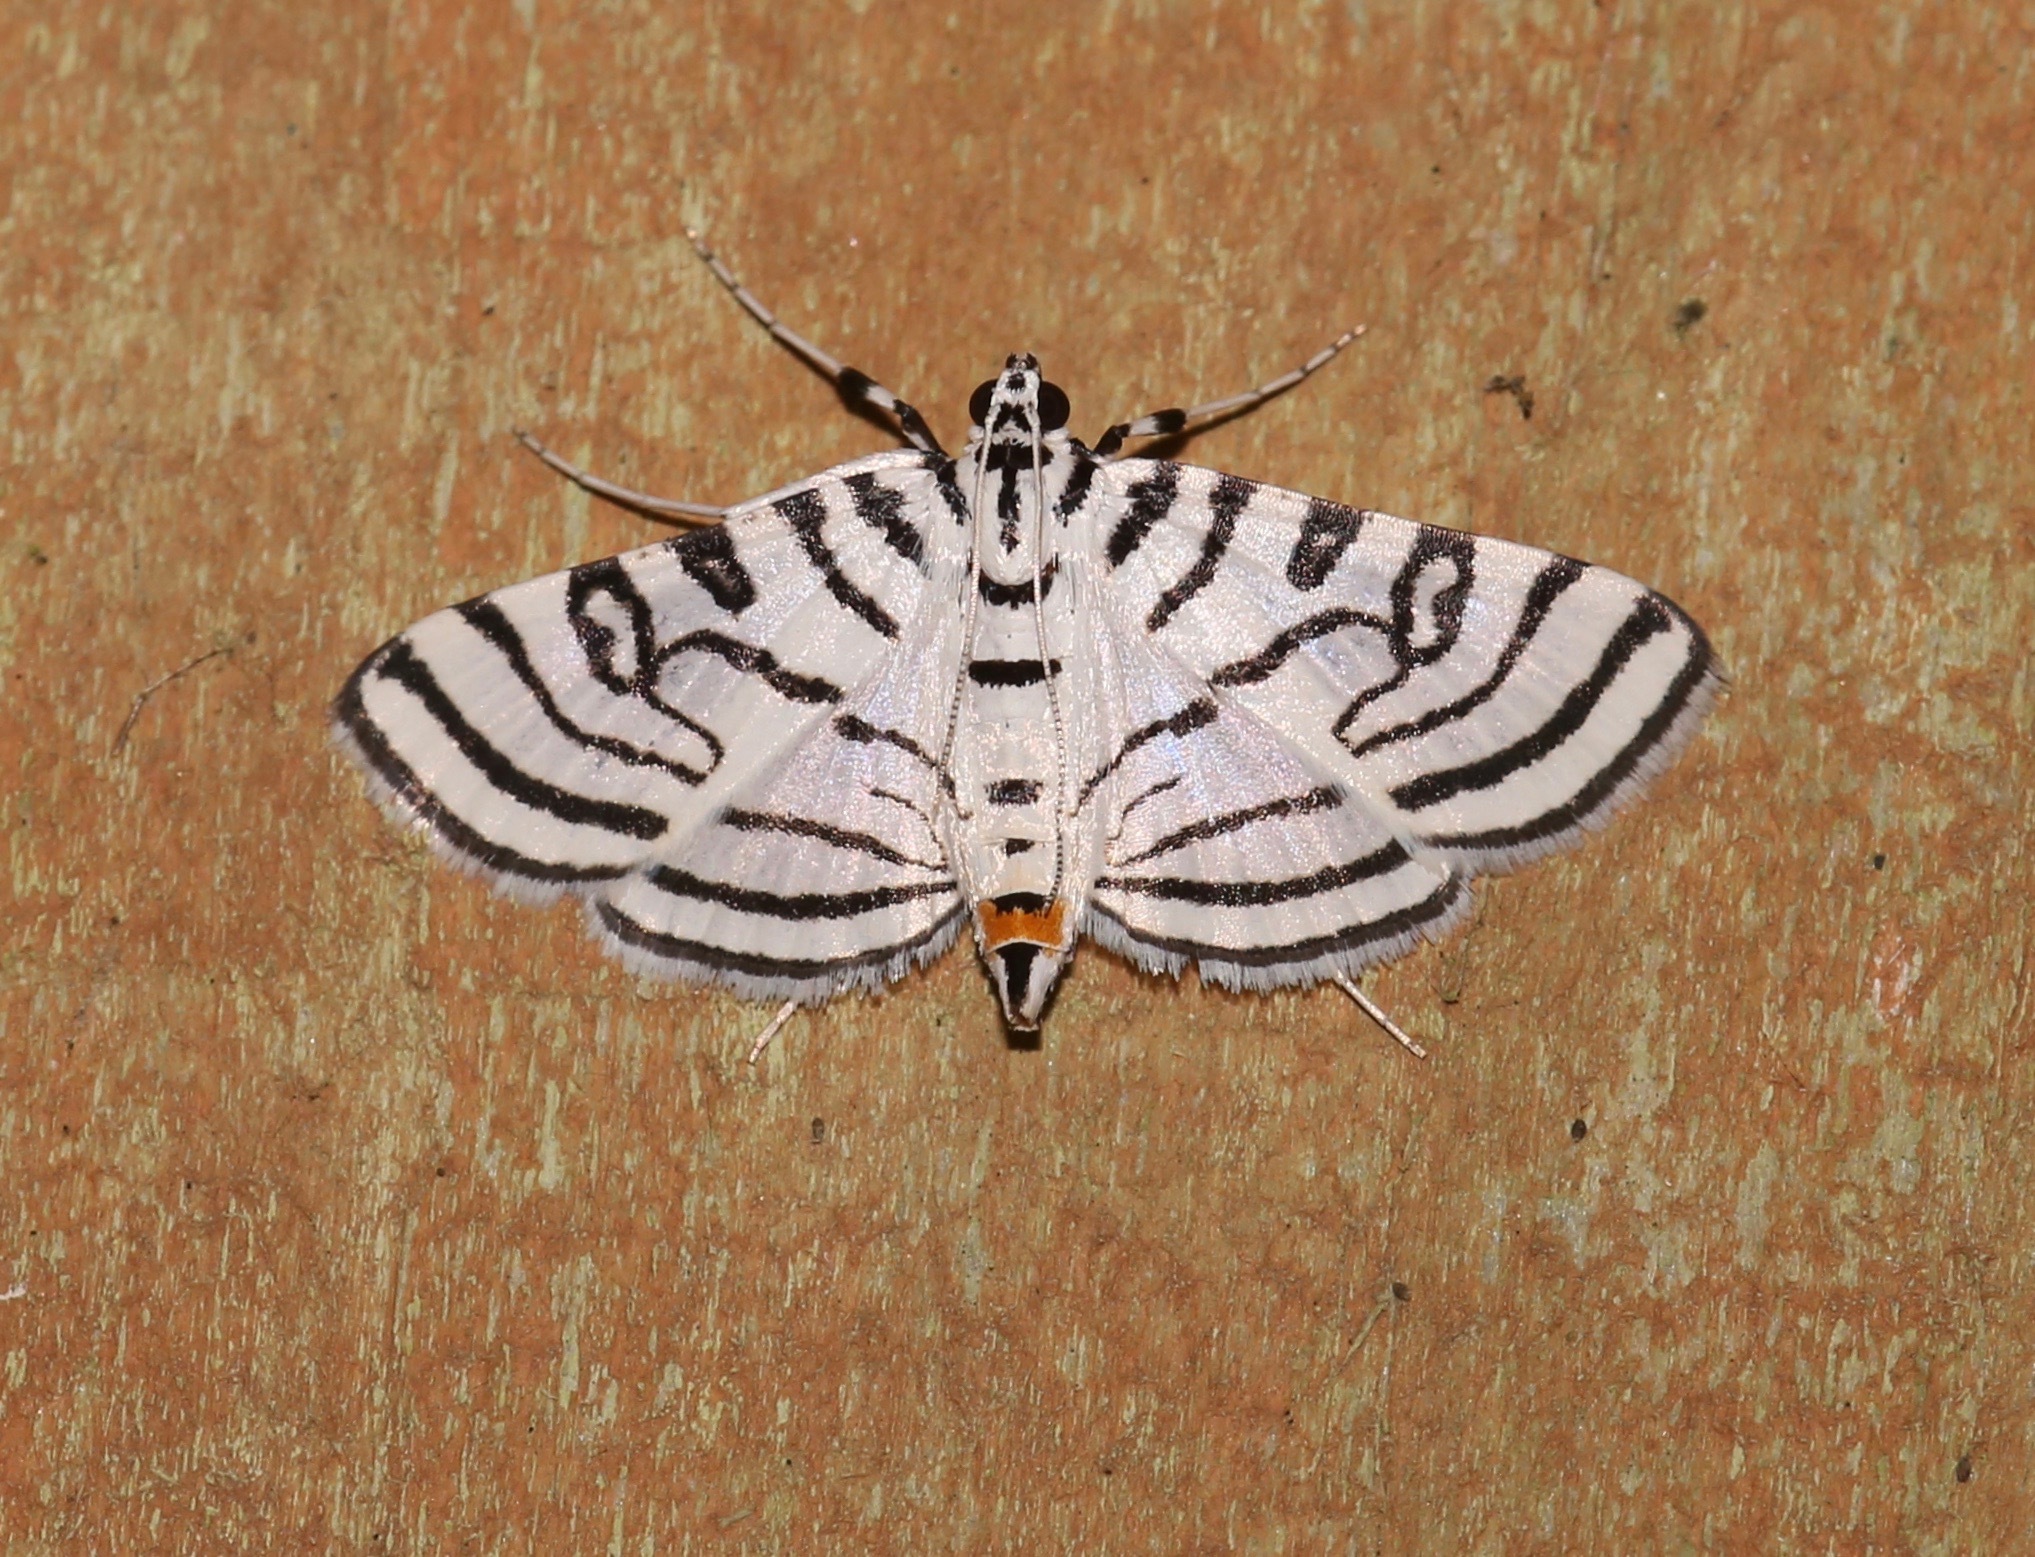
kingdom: Animalia
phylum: Arthropoda
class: Insecta
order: Lepidoptera
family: Crambidae
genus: Conchylodes
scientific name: Conchylodes concinnalis
